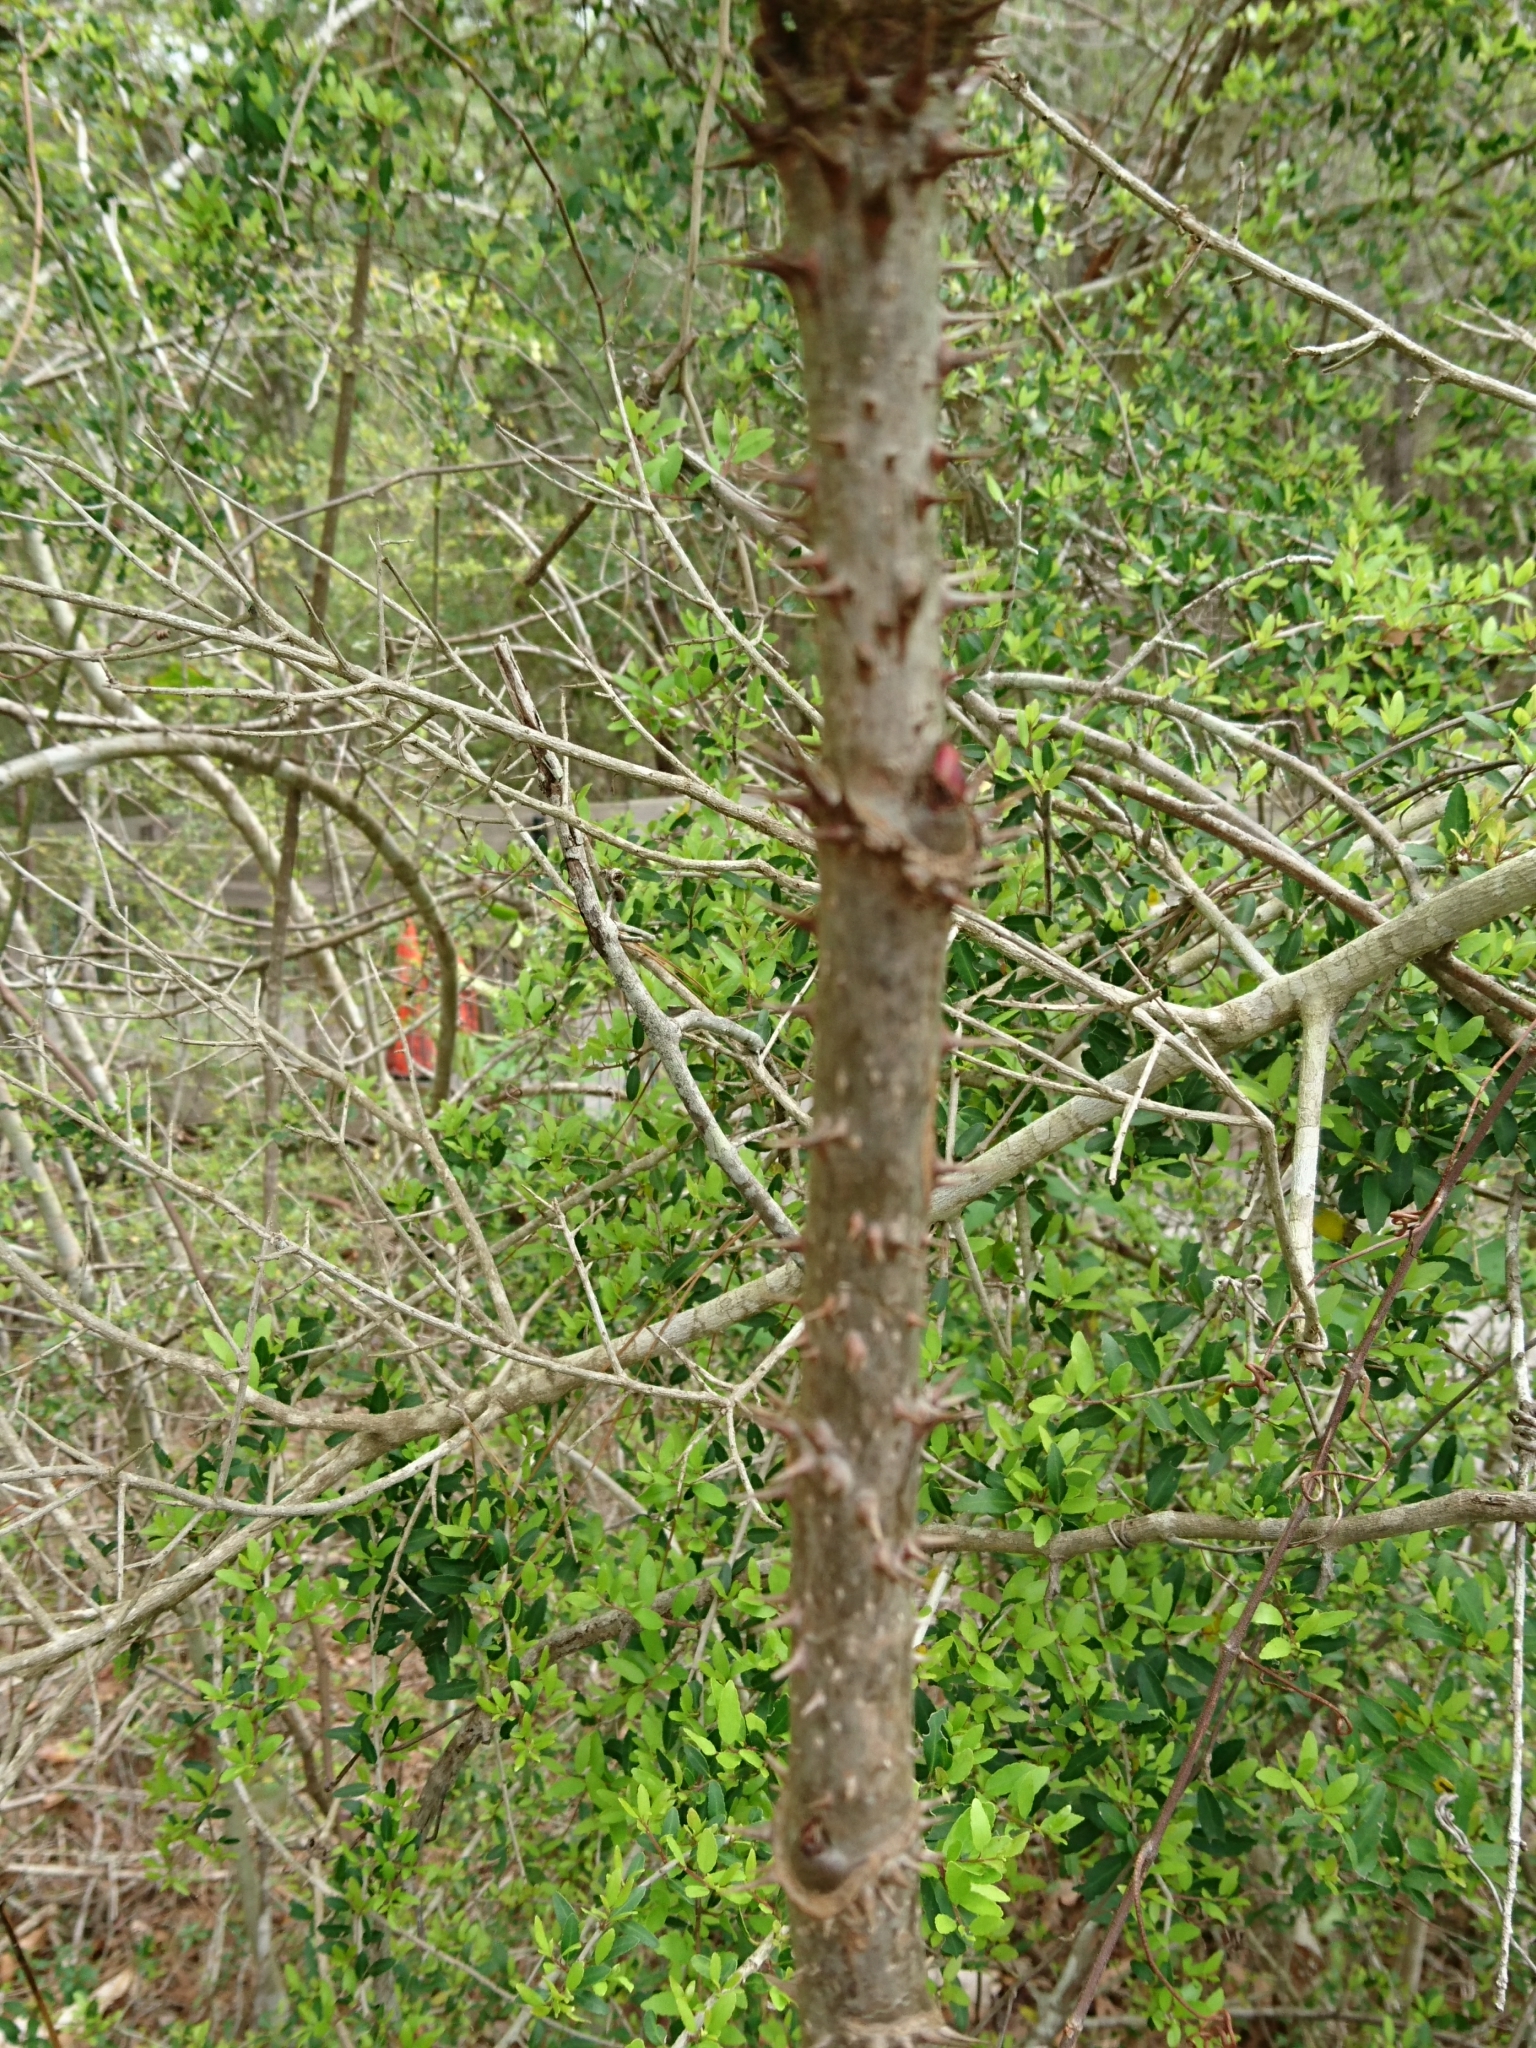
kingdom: Plantae
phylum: Tracheophyta
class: Magnoliopsida
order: Apiales
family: Araliaceae
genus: Aralia
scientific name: Aralia spinosa
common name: Hercules'-club
